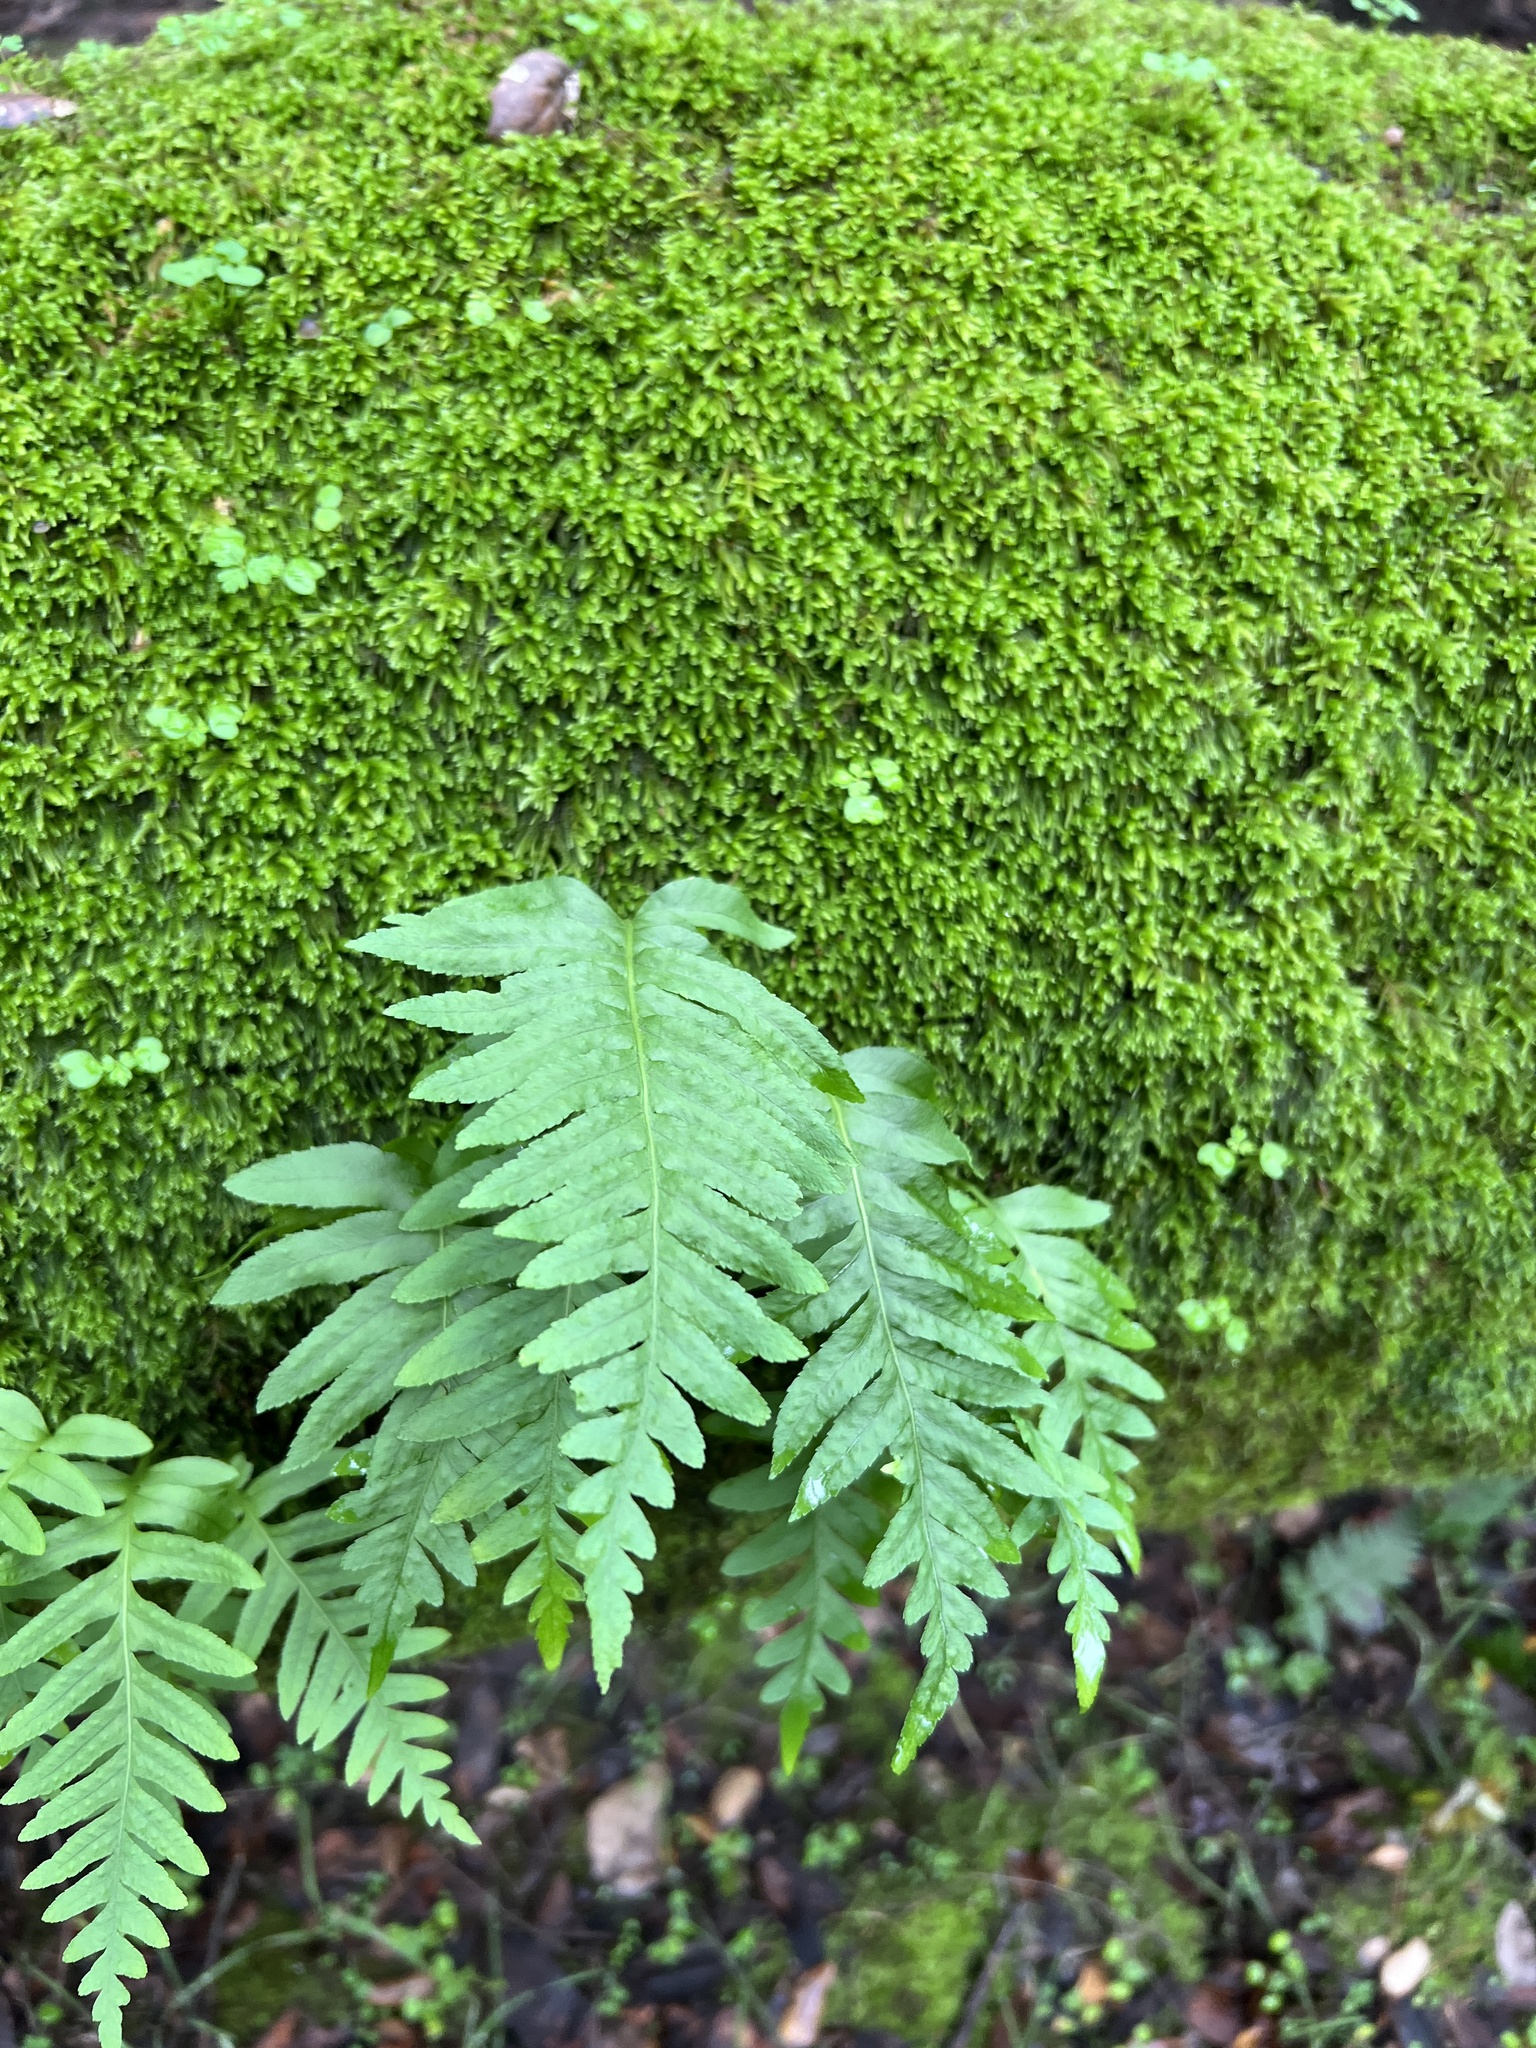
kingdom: Plantae
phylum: Tracheophyta
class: Polypodiopsida
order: Polypodiales
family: Polypodiaceae
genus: Polypodium
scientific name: Polypodium californicum
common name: California polypody
